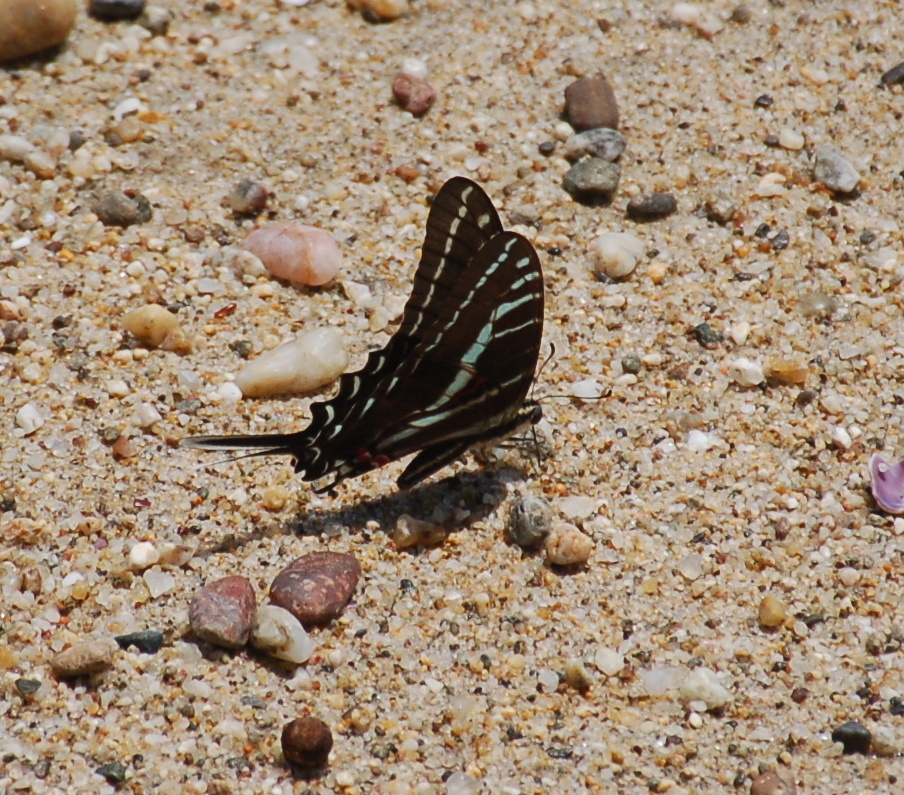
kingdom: Animalia
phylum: Arthropoda
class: Insecta
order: Lepidoptera
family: Papilionidae
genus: Protographium
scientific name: Protographium philolaus
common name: Dark zebra swallowtail
